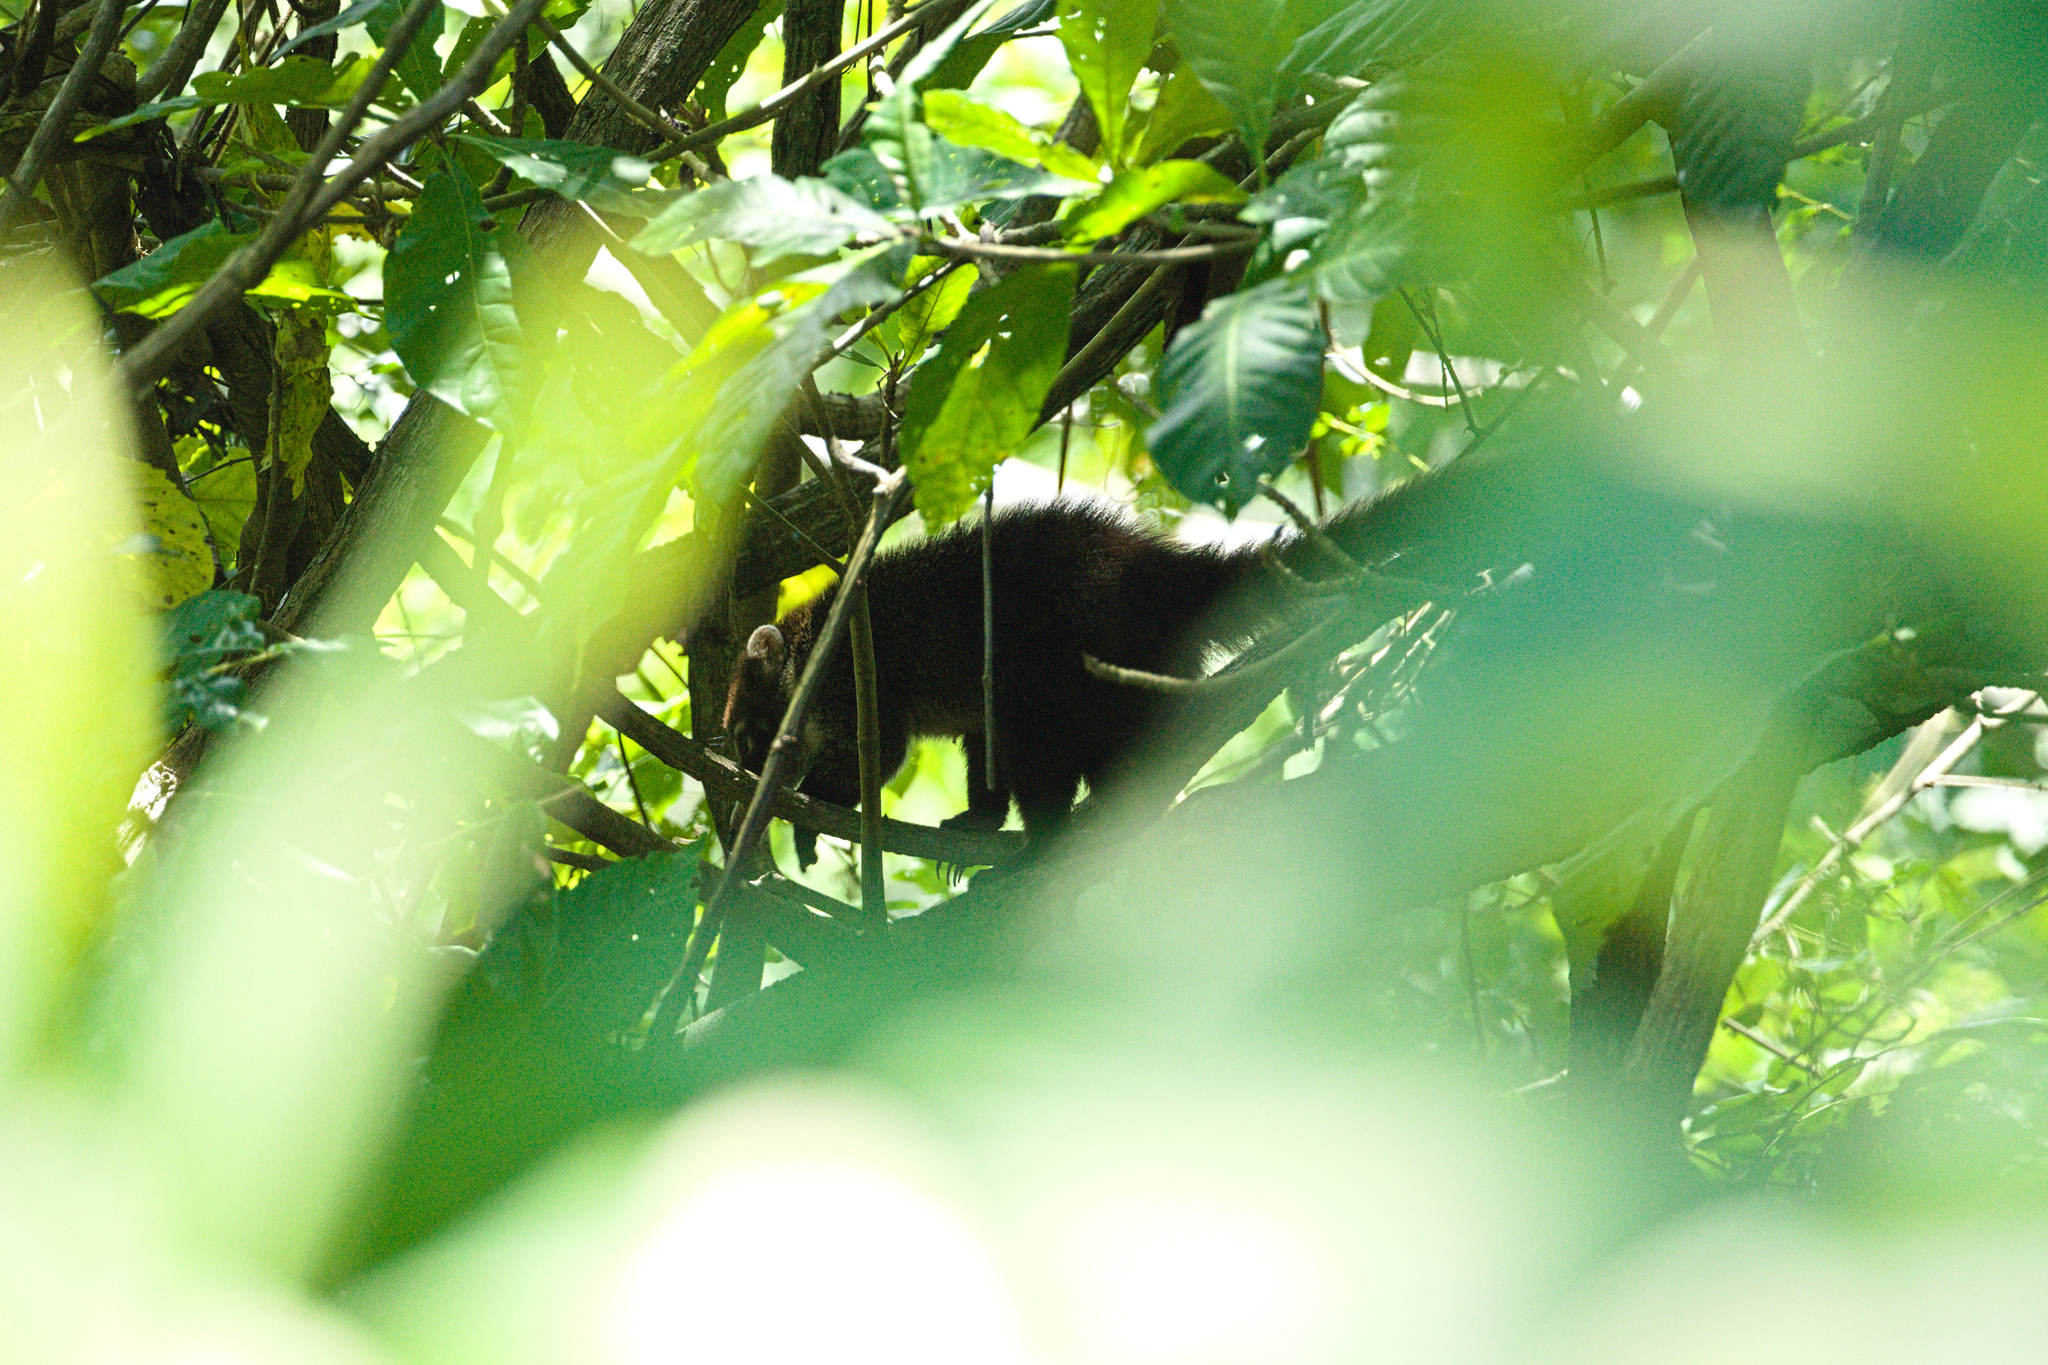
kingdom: Animalia
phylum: Chordata
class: Mammalia
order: Carnivora
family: Procyonidae
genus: Nasua
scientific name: Nasua narica
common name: White-nosed coati
